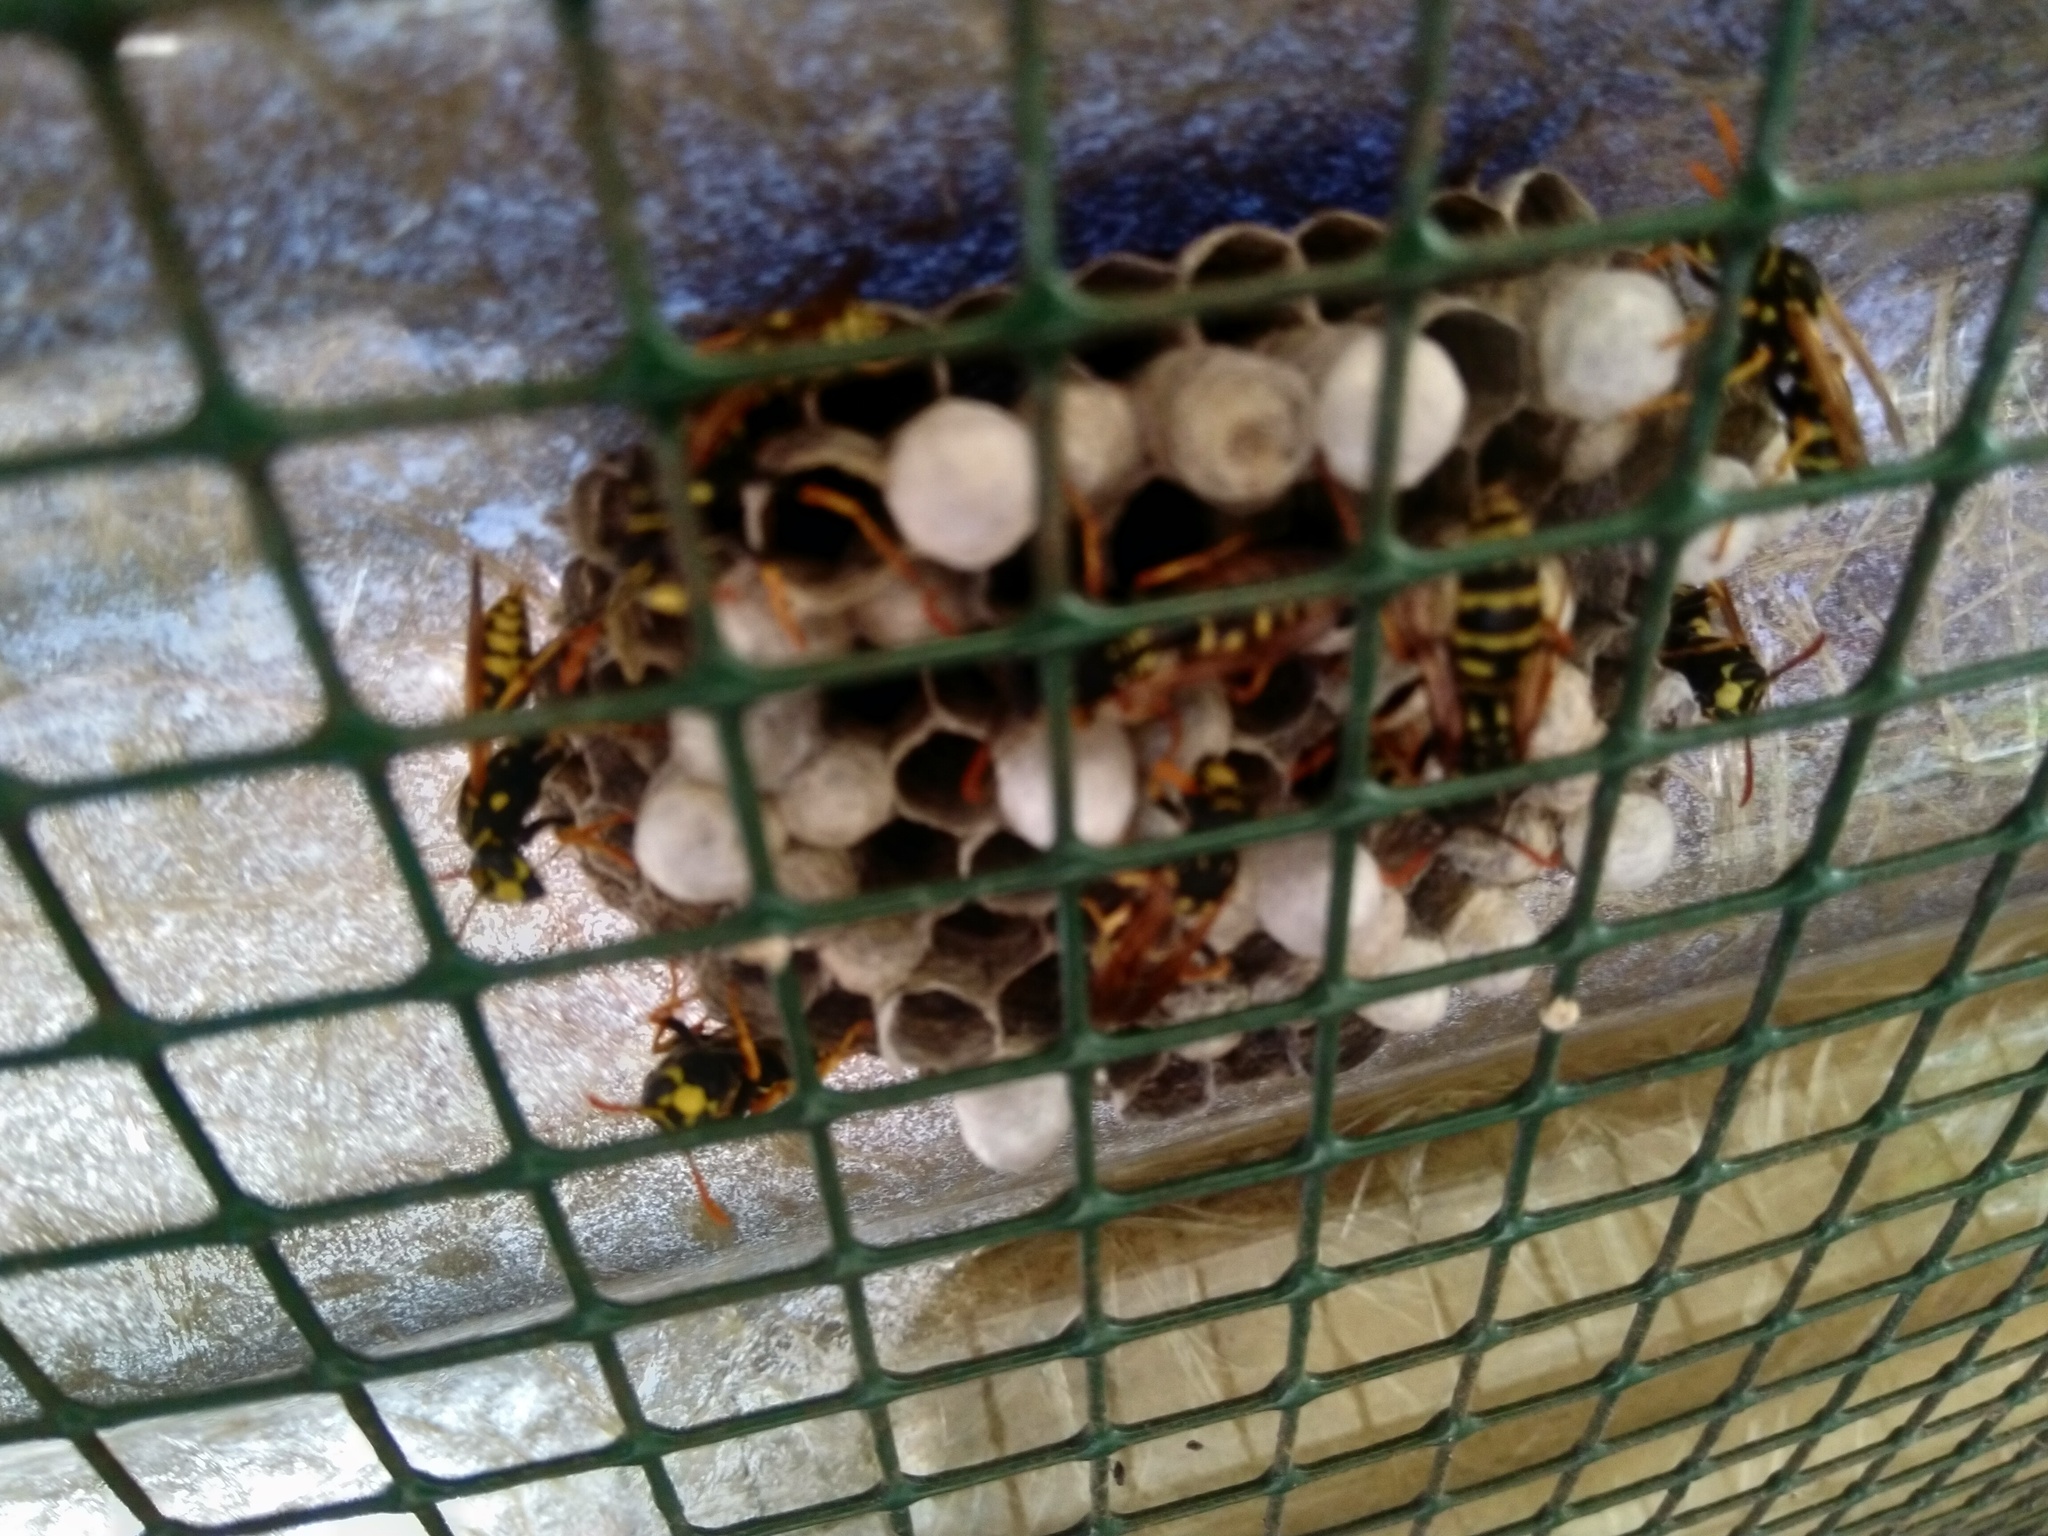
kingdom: Animalia
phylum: Arthropoda
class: Insecta
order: Hymenoptera
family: Eumenidae
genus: Polistes
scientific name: Polistes dominula
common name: Paper wasp
